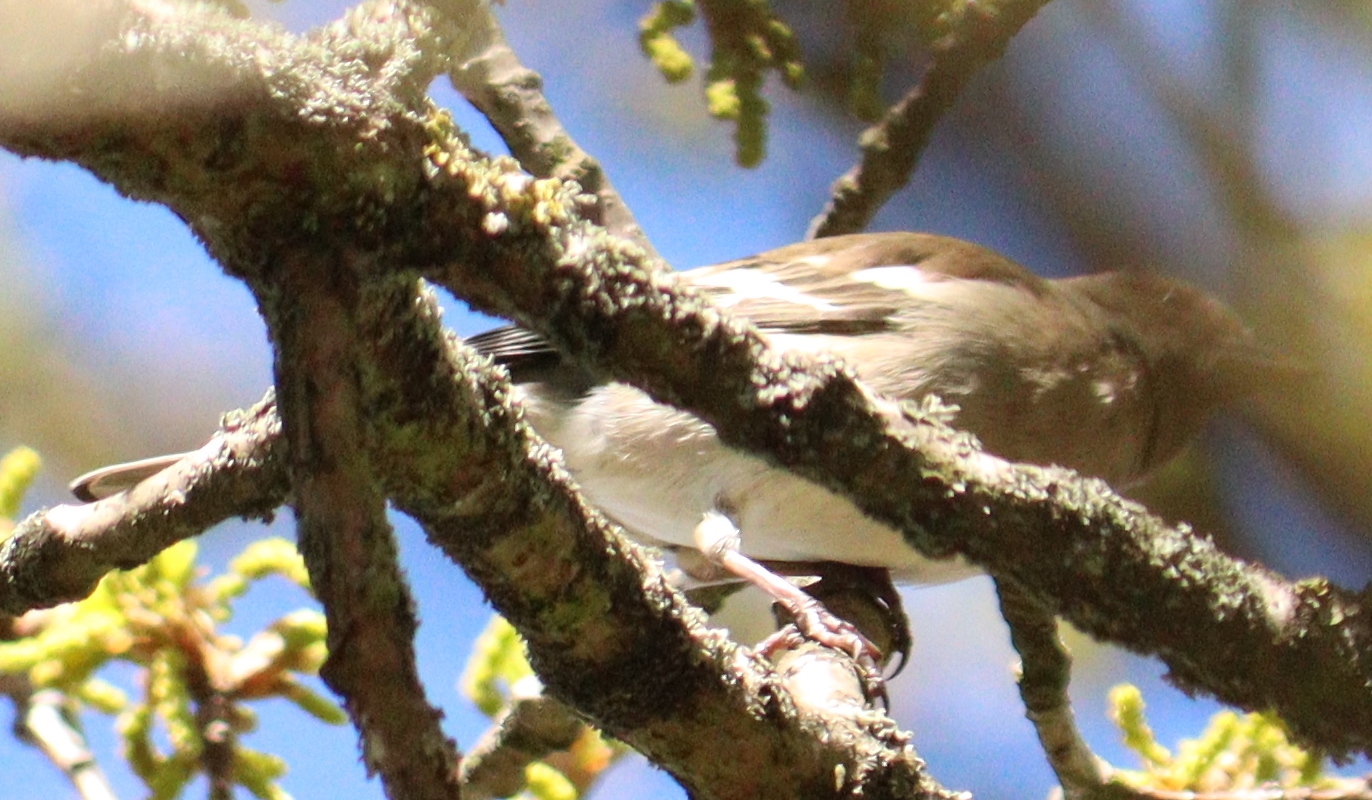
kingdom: Animalia
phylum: Chordata
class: Aves
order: Passeriformes
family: Fringillidae
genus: Fringilla
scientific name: Fringilla coelebs
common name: Common chaffinch
